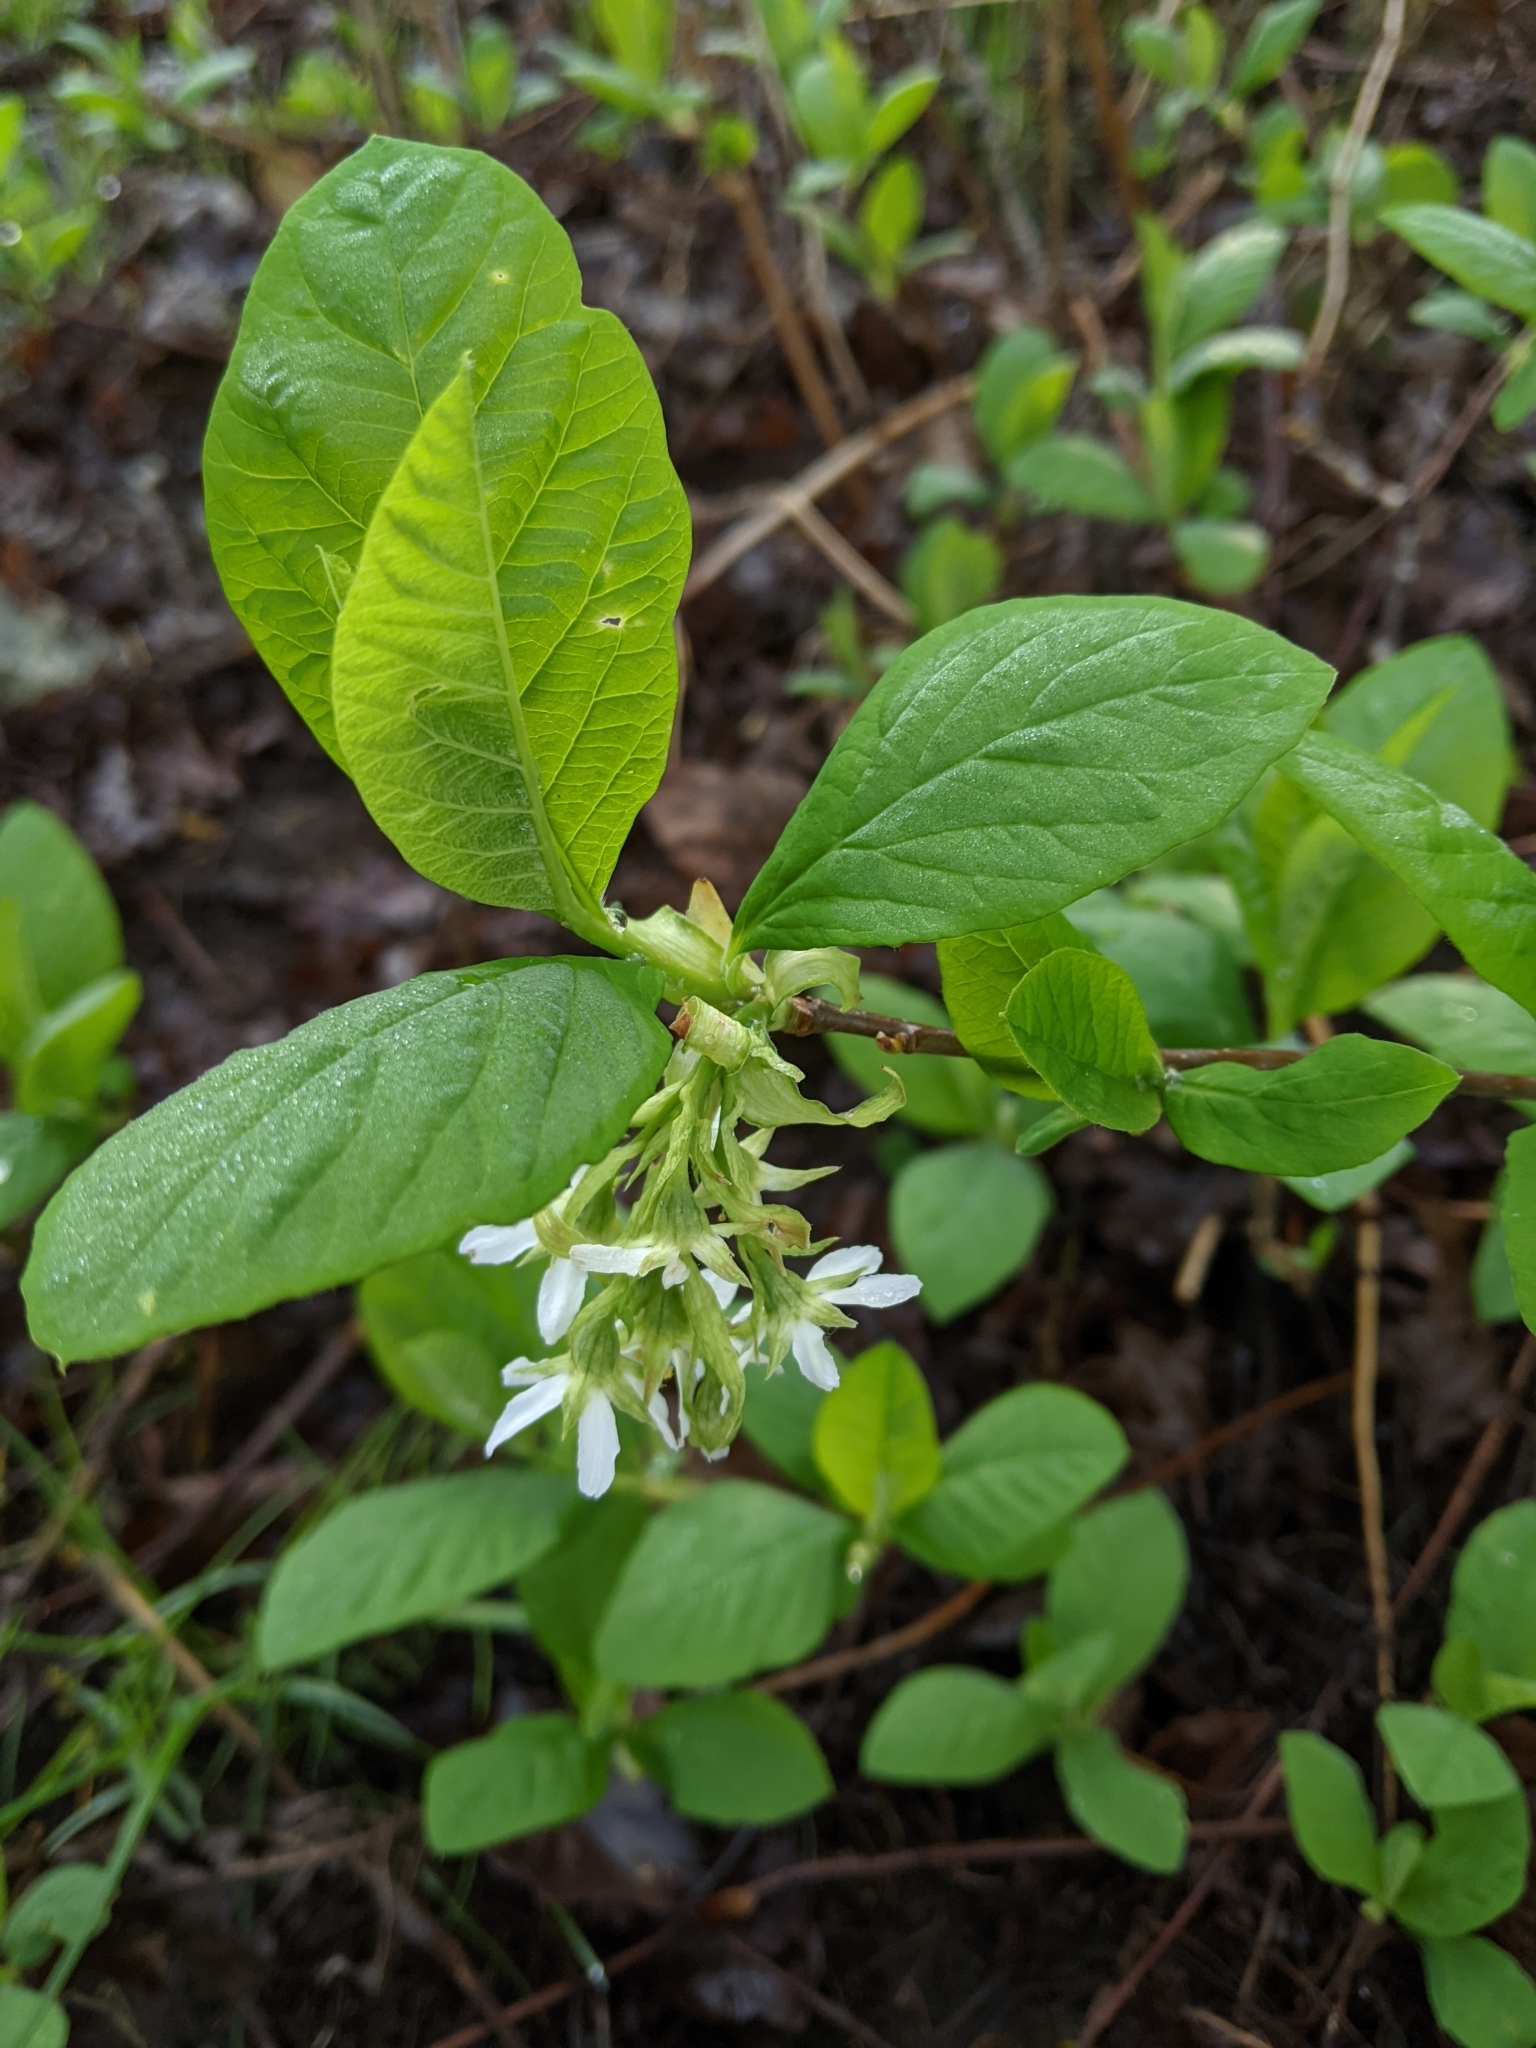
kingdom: Plantae
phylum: Tracheophyta
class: Magnoliopsida
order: Rosales
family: Rosaceae
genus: Oemleria
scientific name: Oemleria cerasiformis
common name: Osoberry
